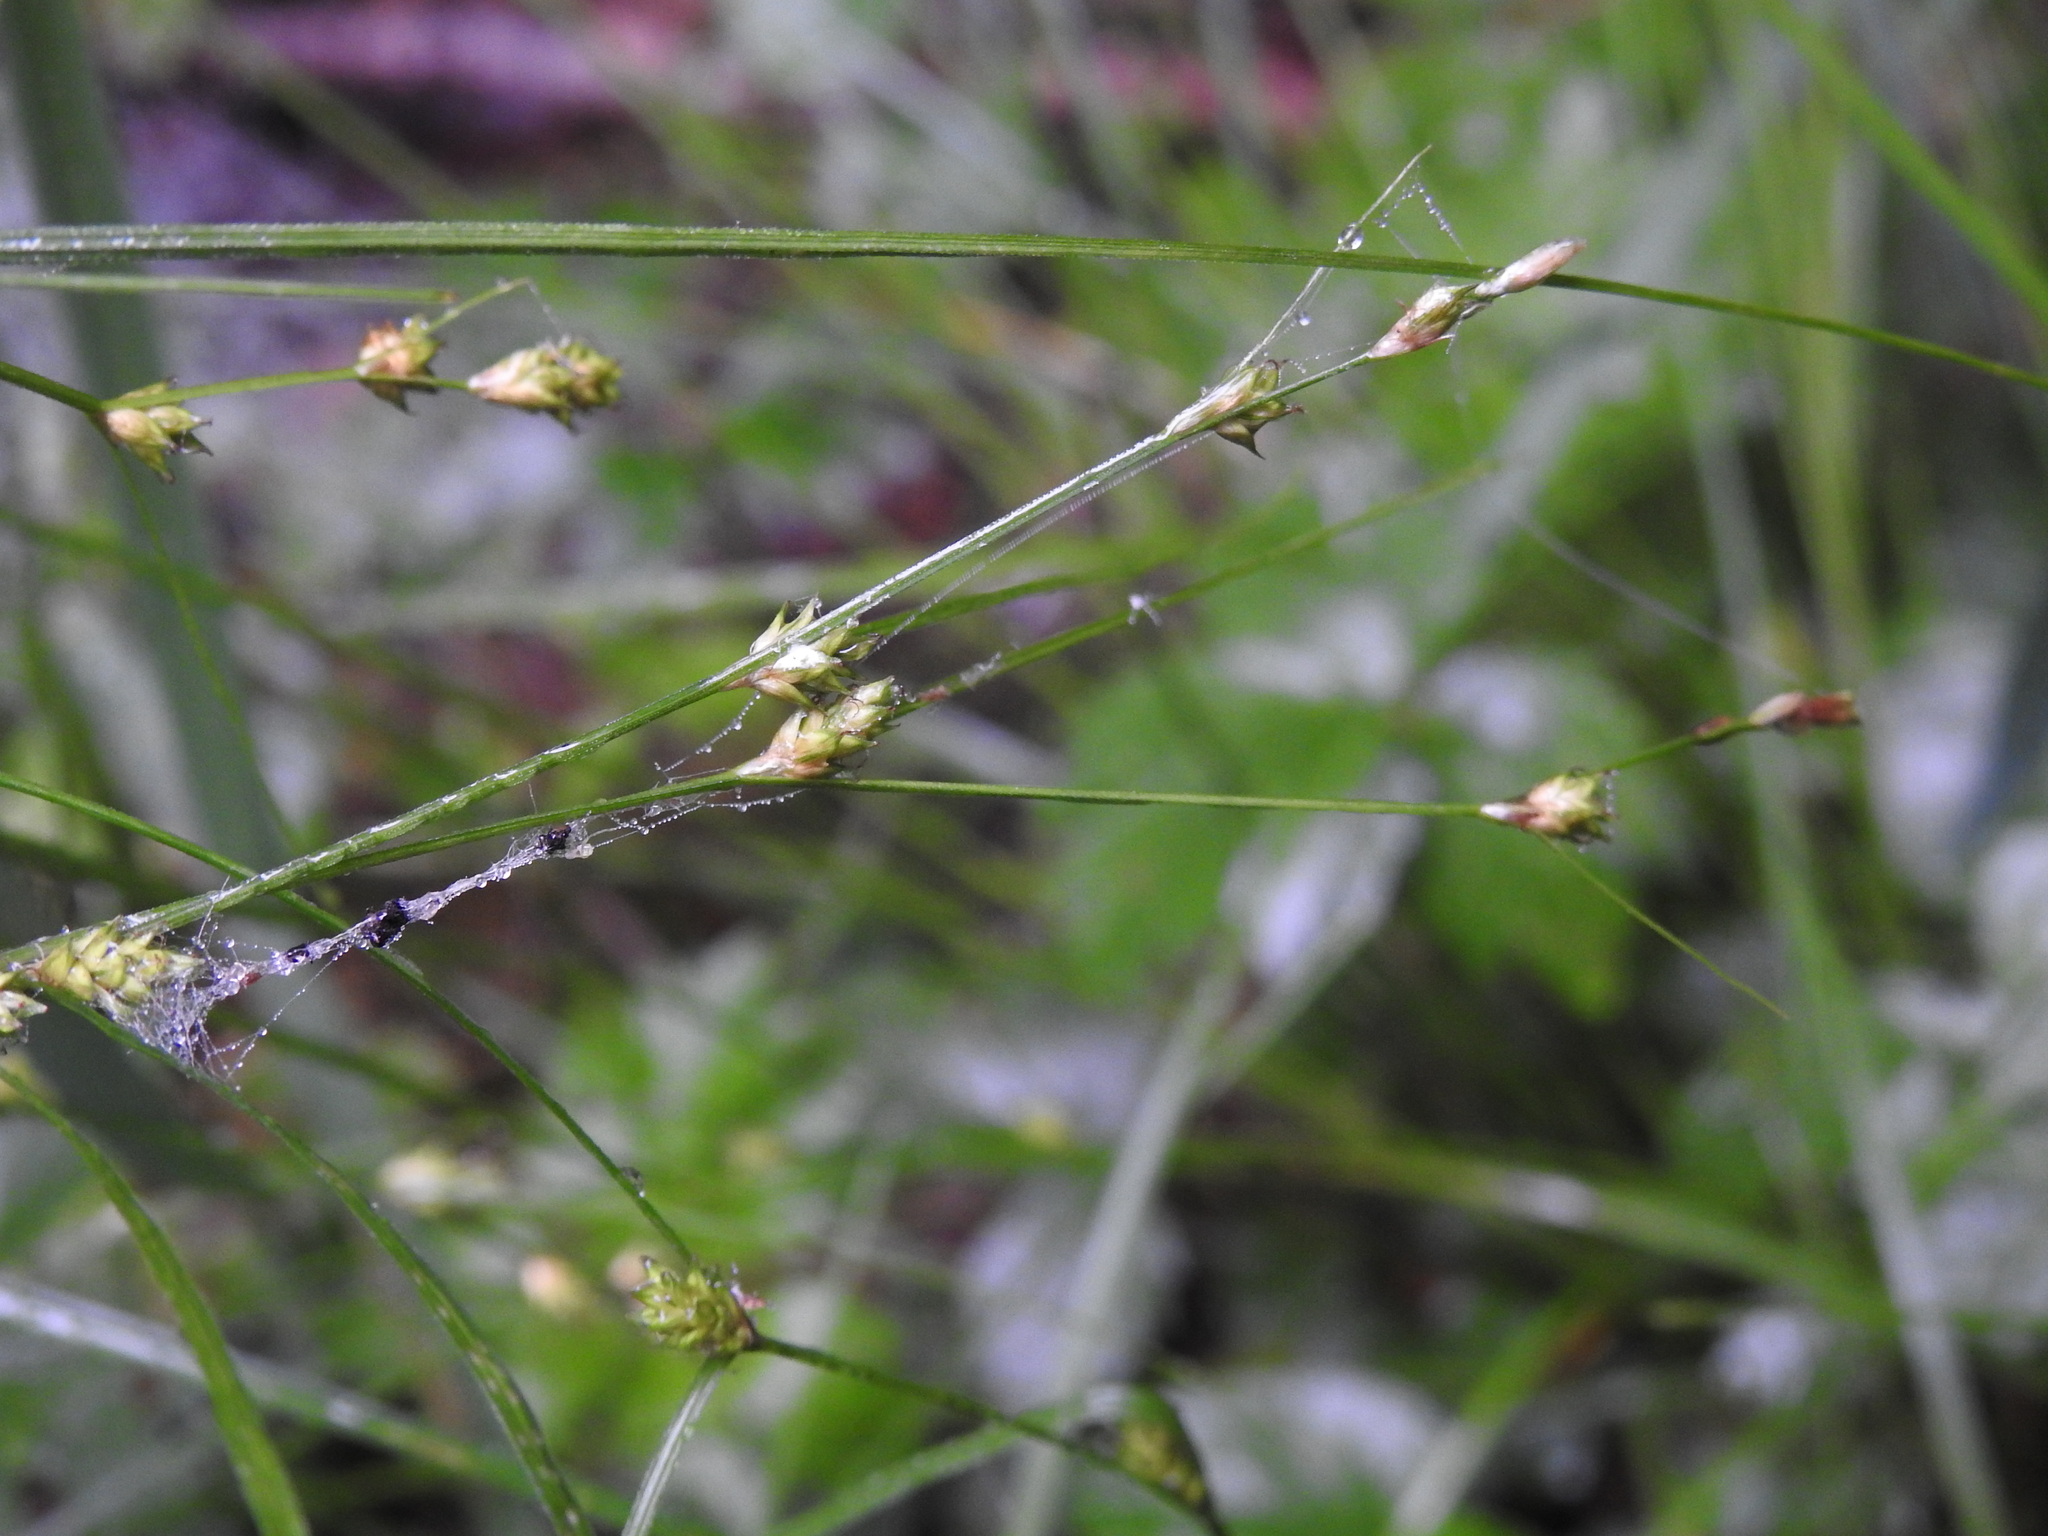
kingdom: Plantae
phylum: Tracheophyta
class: Liliopsida
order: Poales
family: Cyperaceae
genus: Carex
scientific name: Carex remota
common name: Remote sedge
